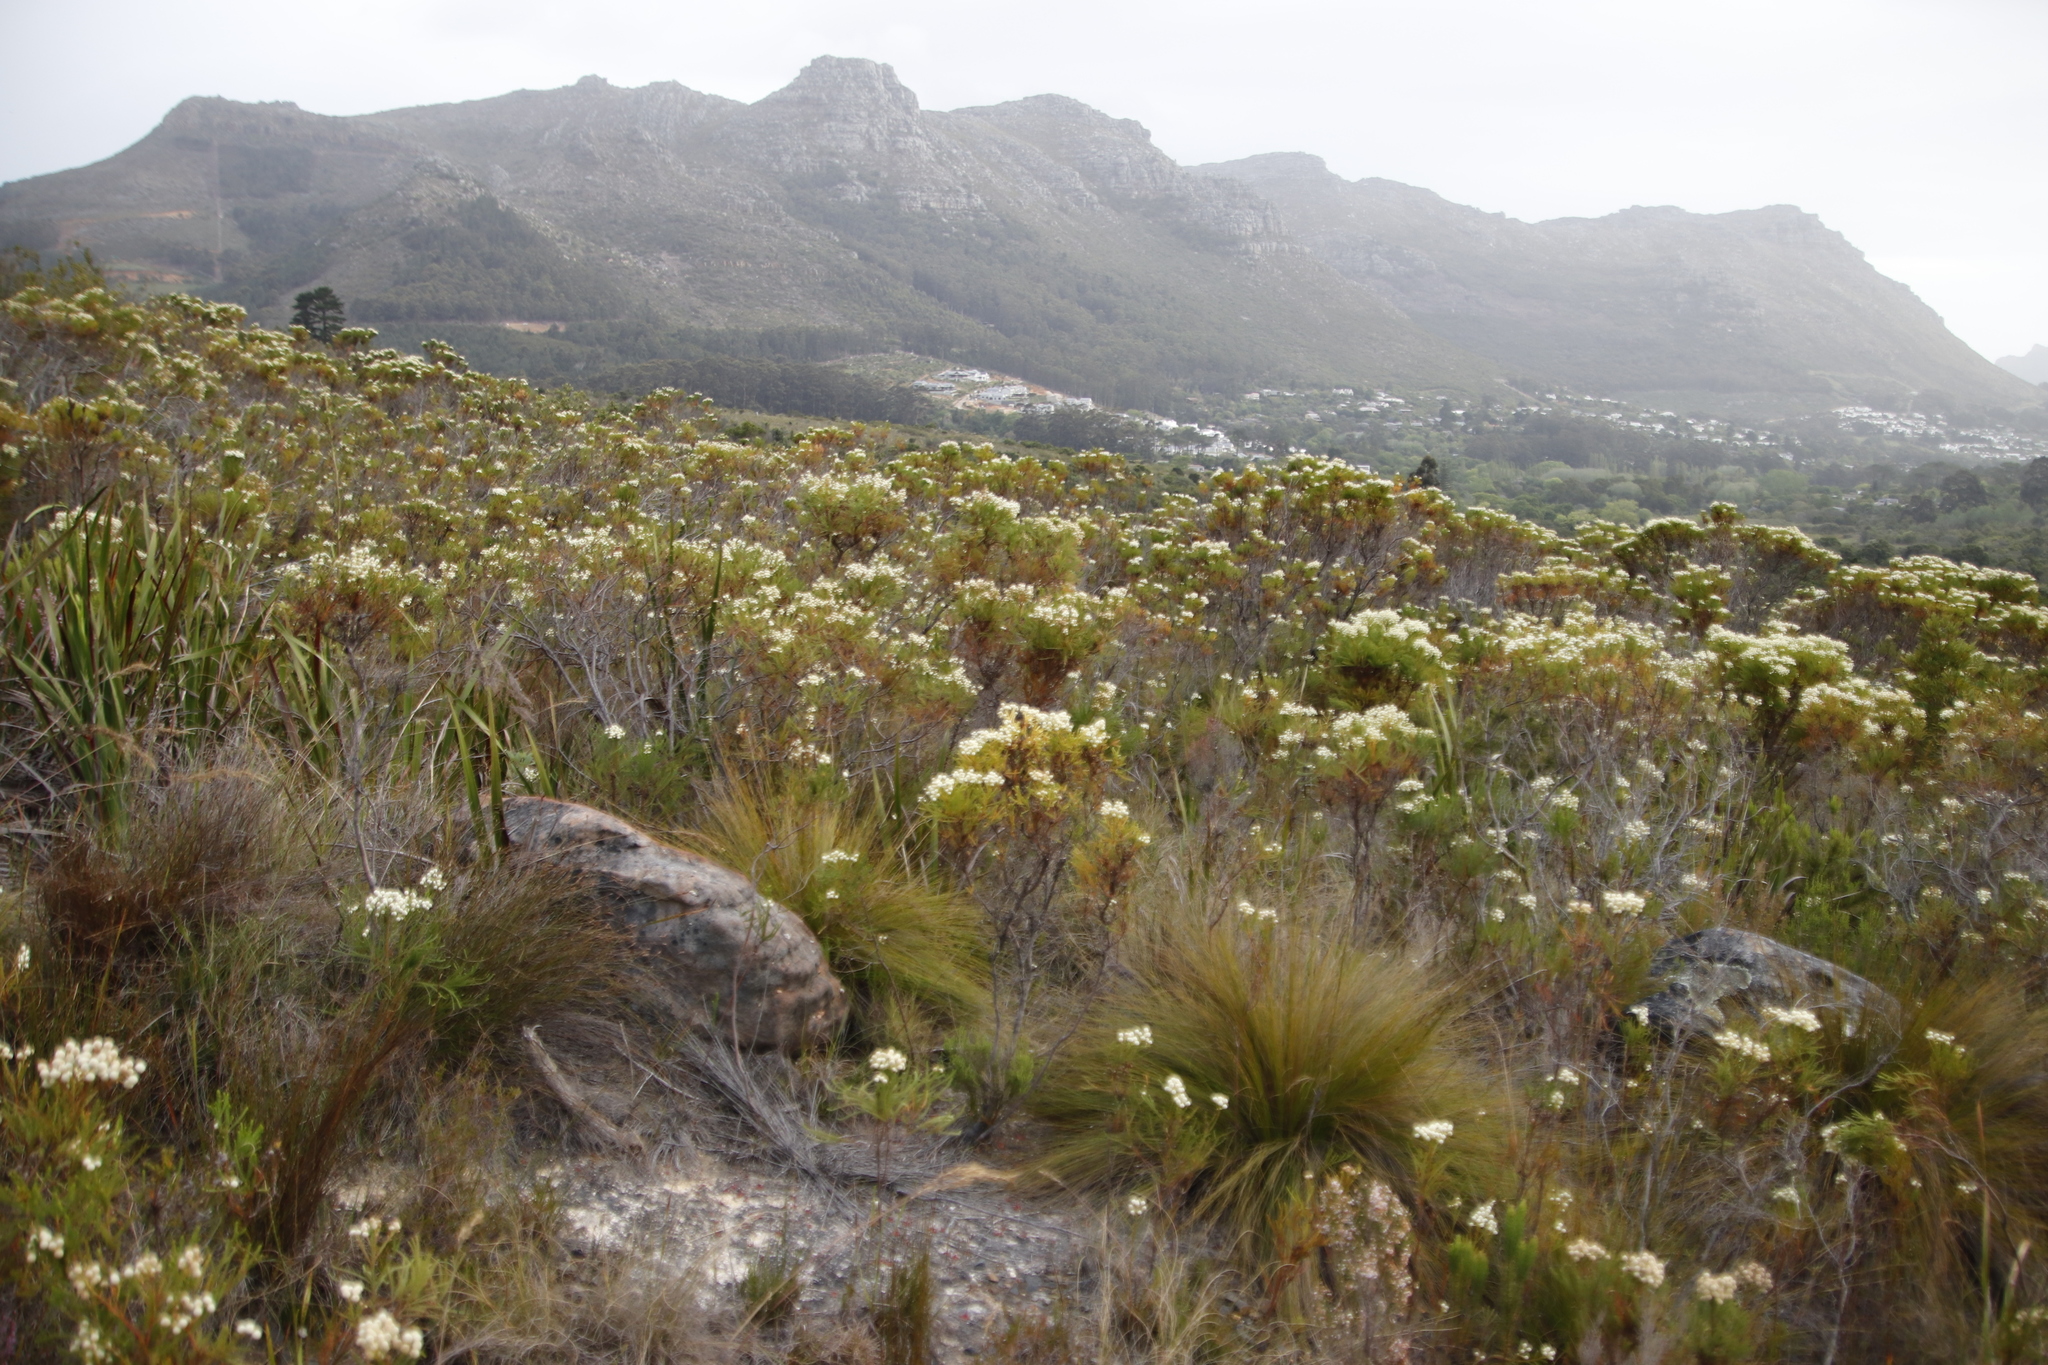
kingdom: Plantae
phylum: Tracheophyta
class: Magnoliopsida
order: Bruniales
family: Bruniaceae
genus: Berzelia
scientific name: Berzelia lanuginosa
